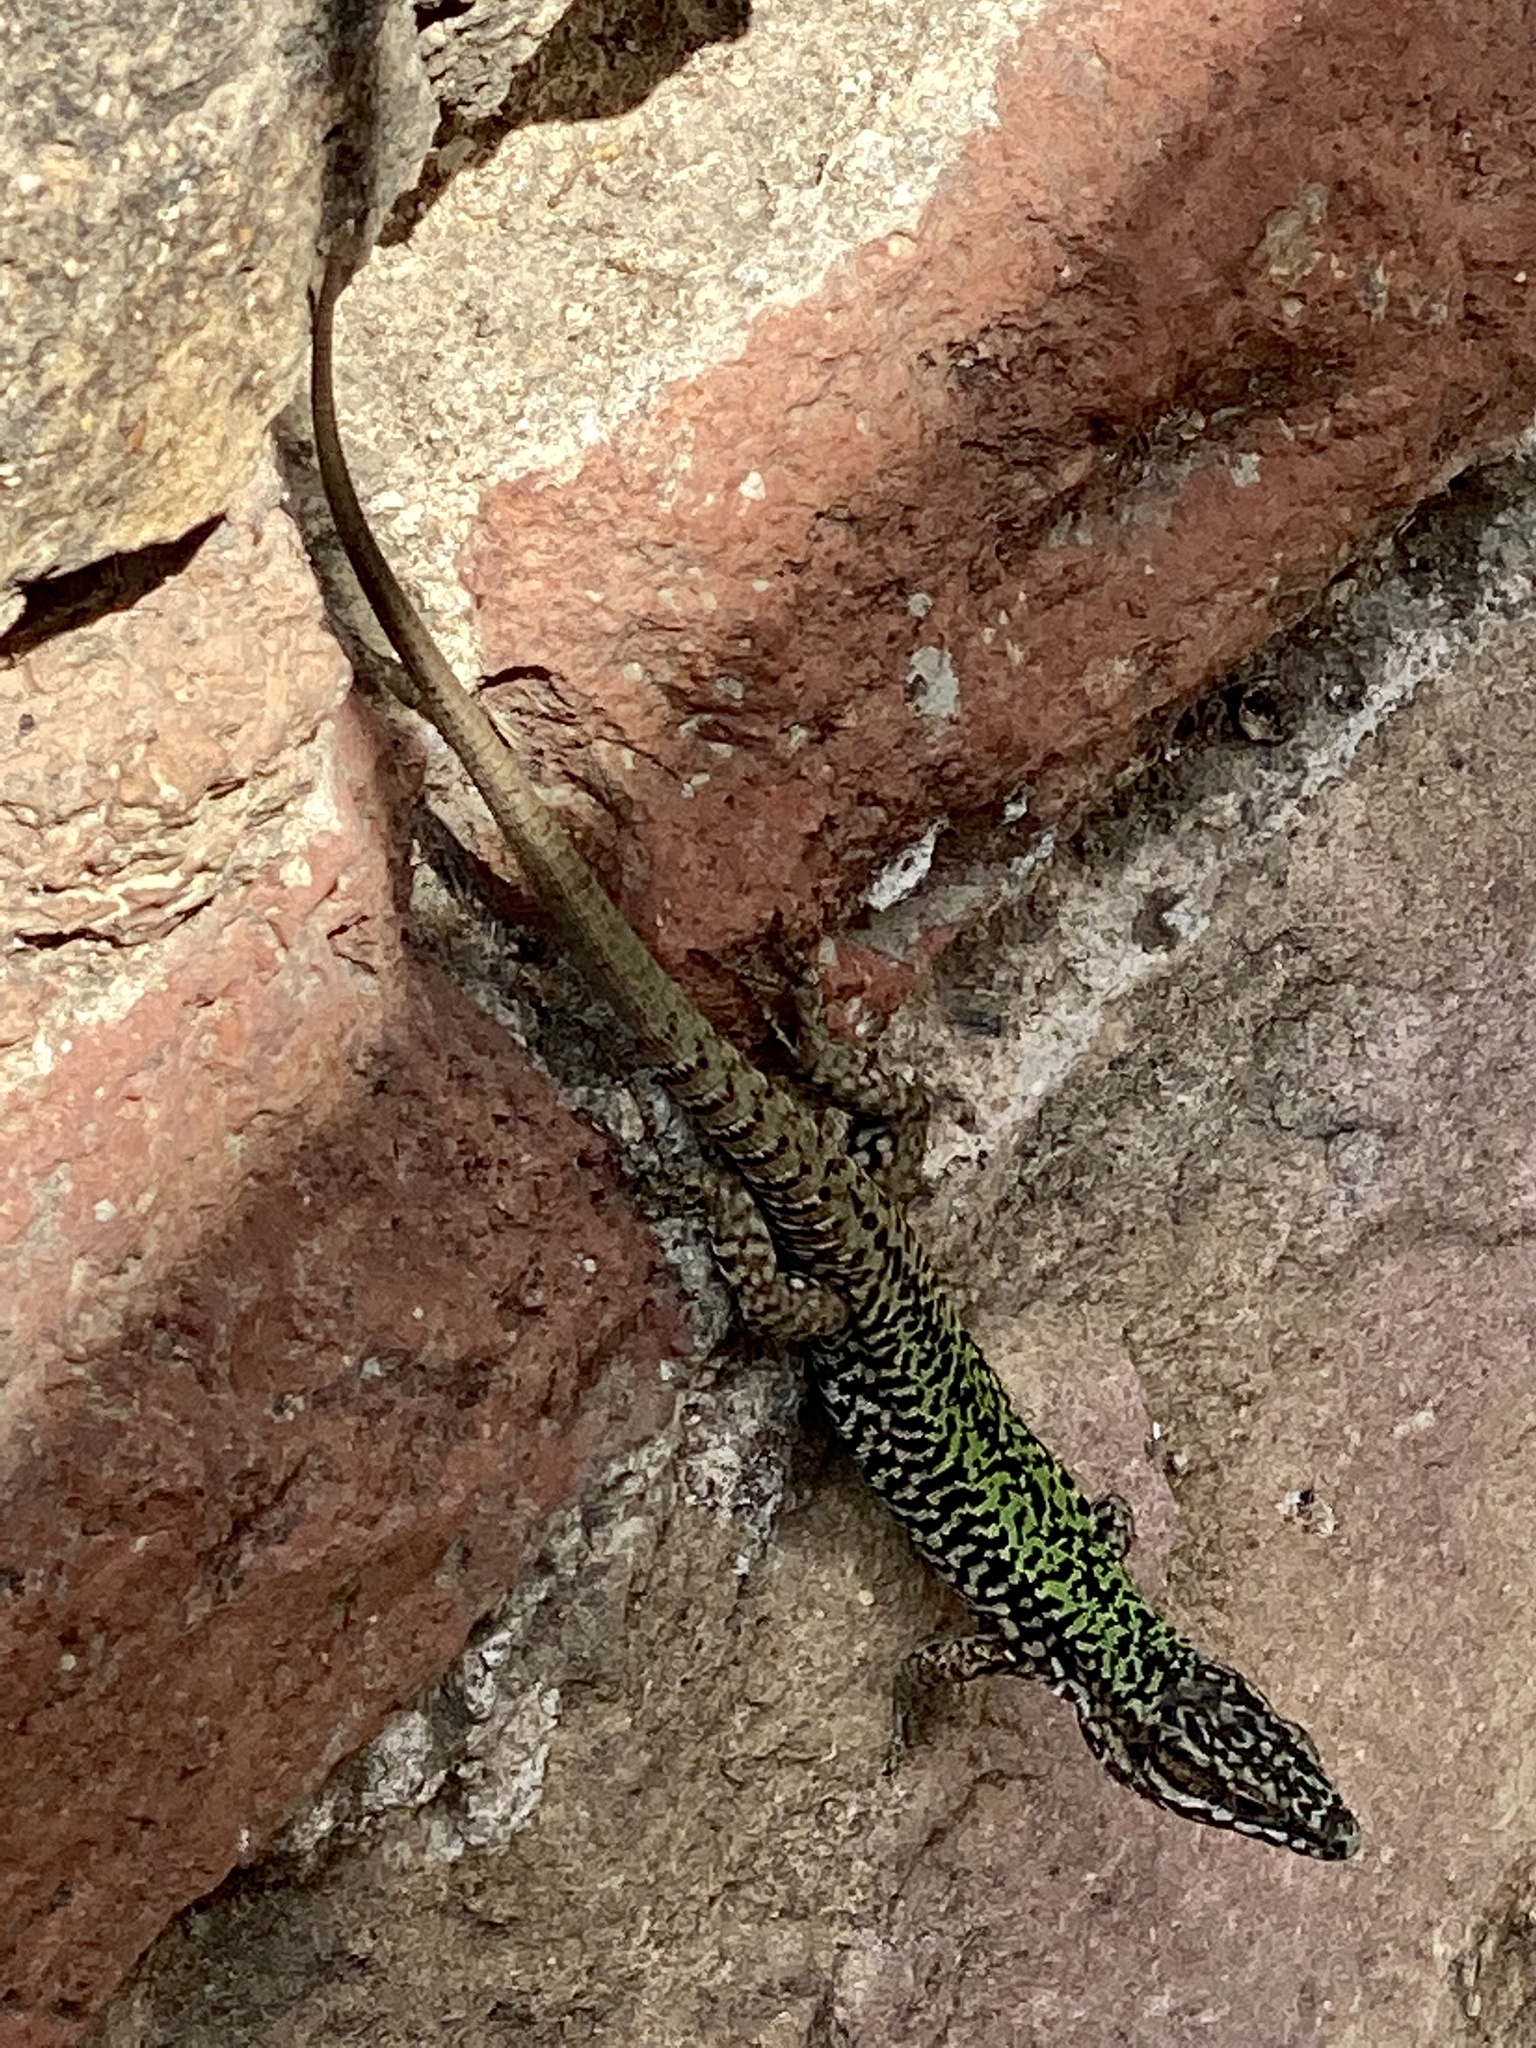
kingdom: Animalia
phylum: Chordata
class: Squamata
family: Lacertidae
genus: Podarcis
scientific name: Podarcis muralis
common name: Common wall lizard
